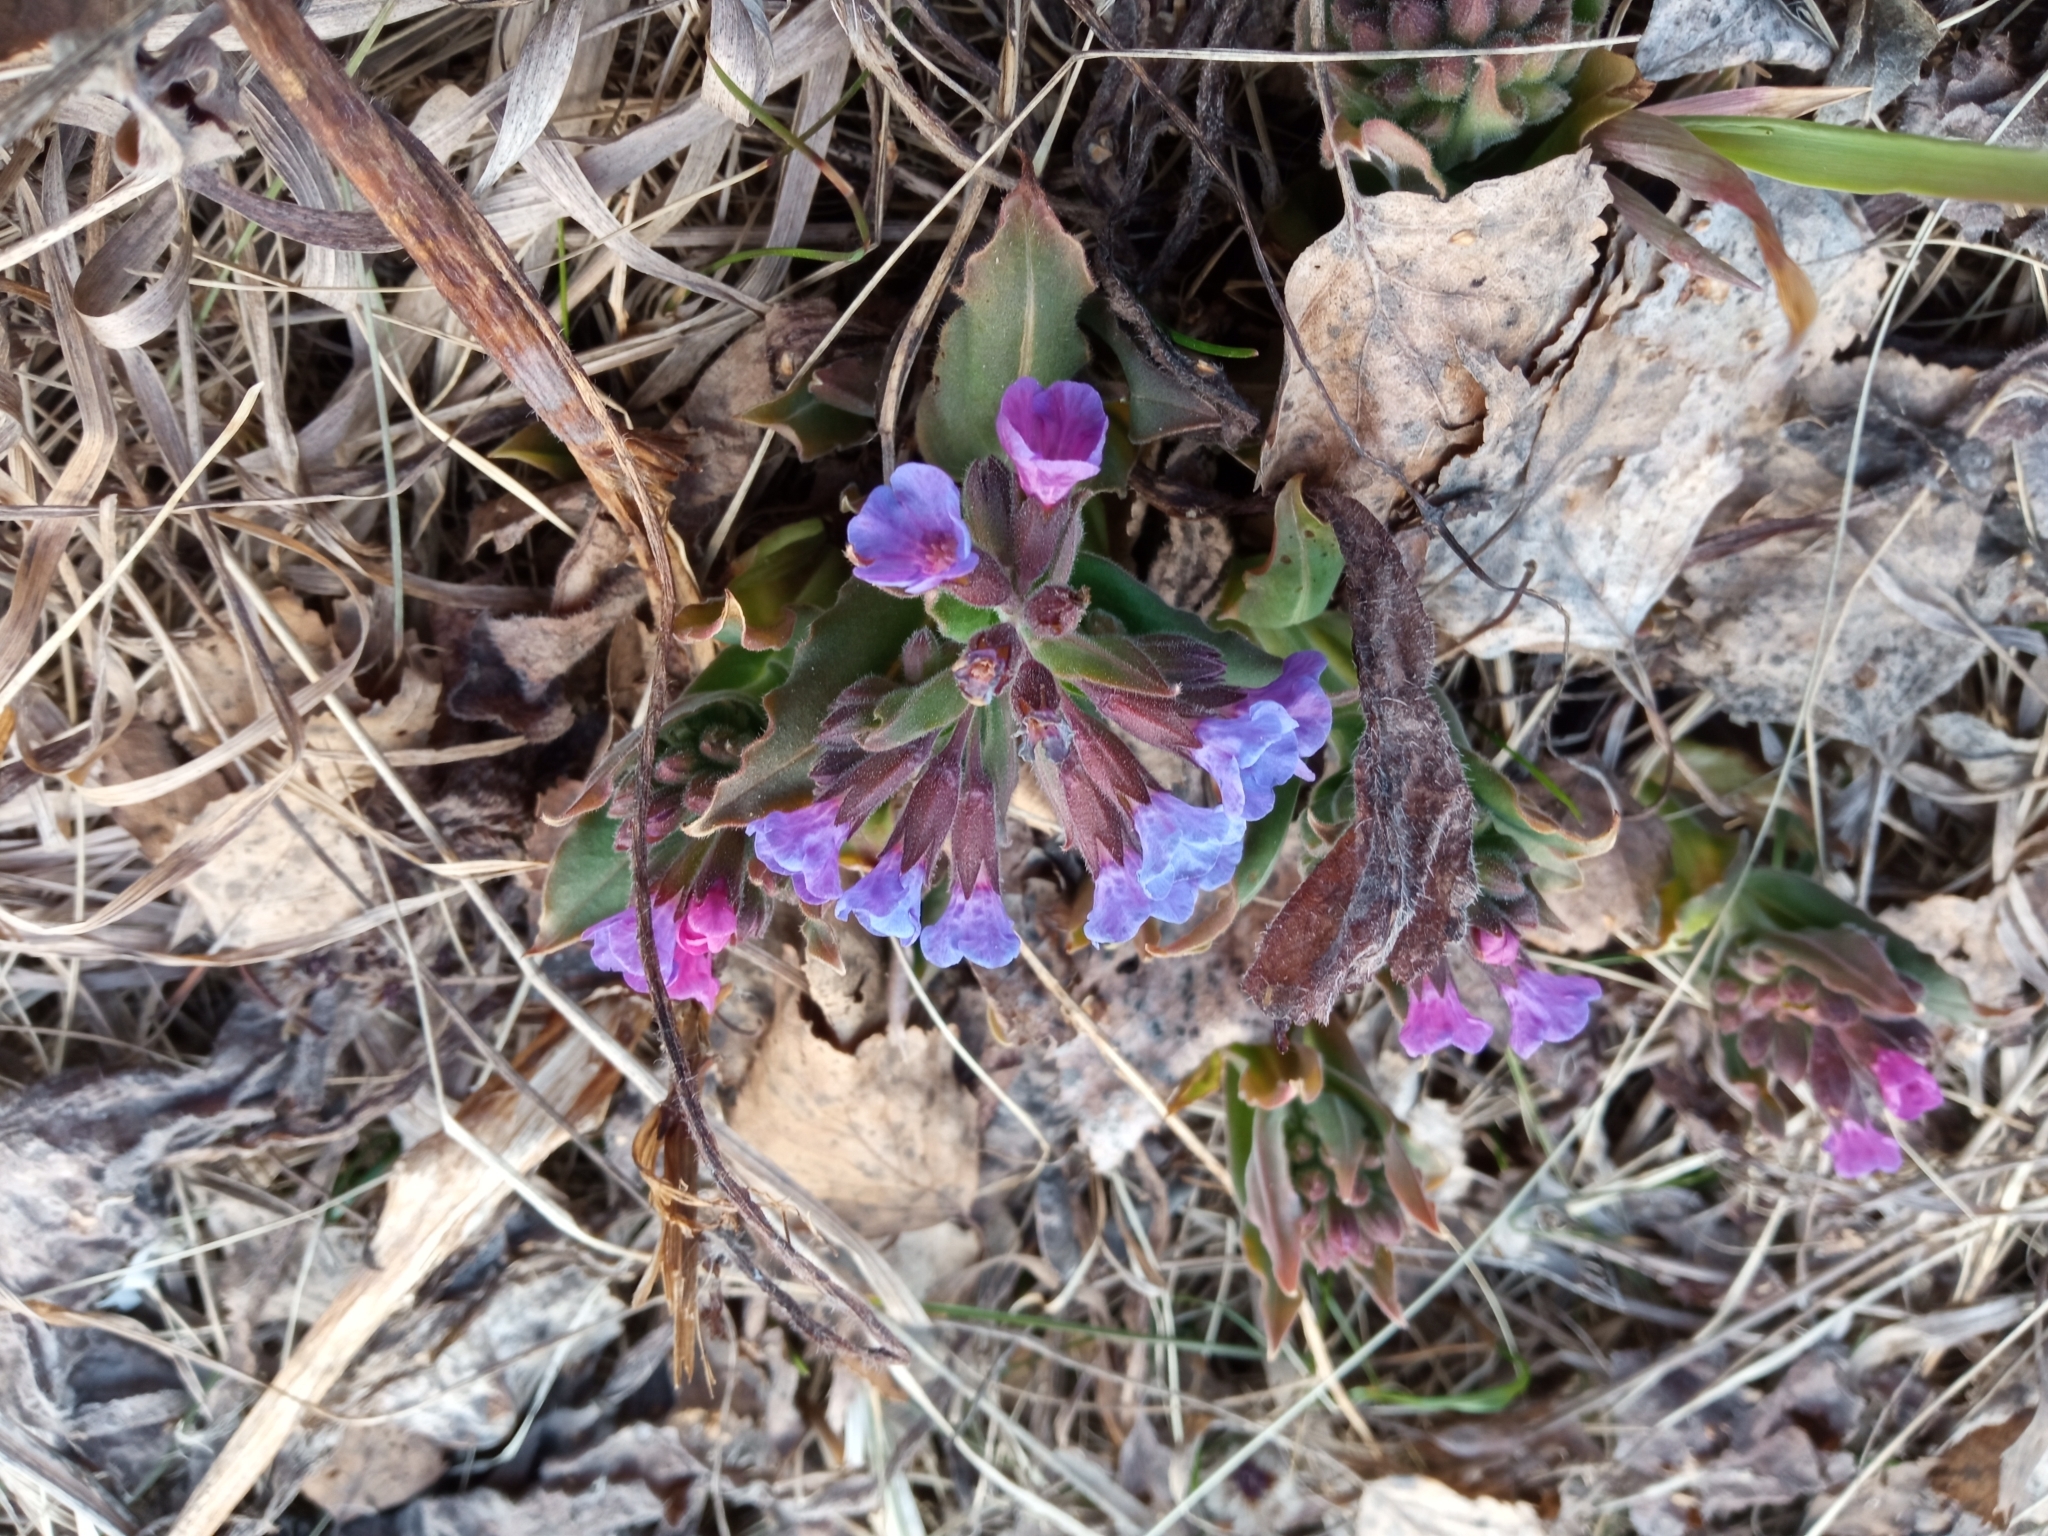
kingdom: Plantae
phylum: Tracheophyta
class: Magnoliopsida
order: Boraginales
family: Boraginaceae
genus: Pulmonaria
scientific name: Pulmonaria mollis
